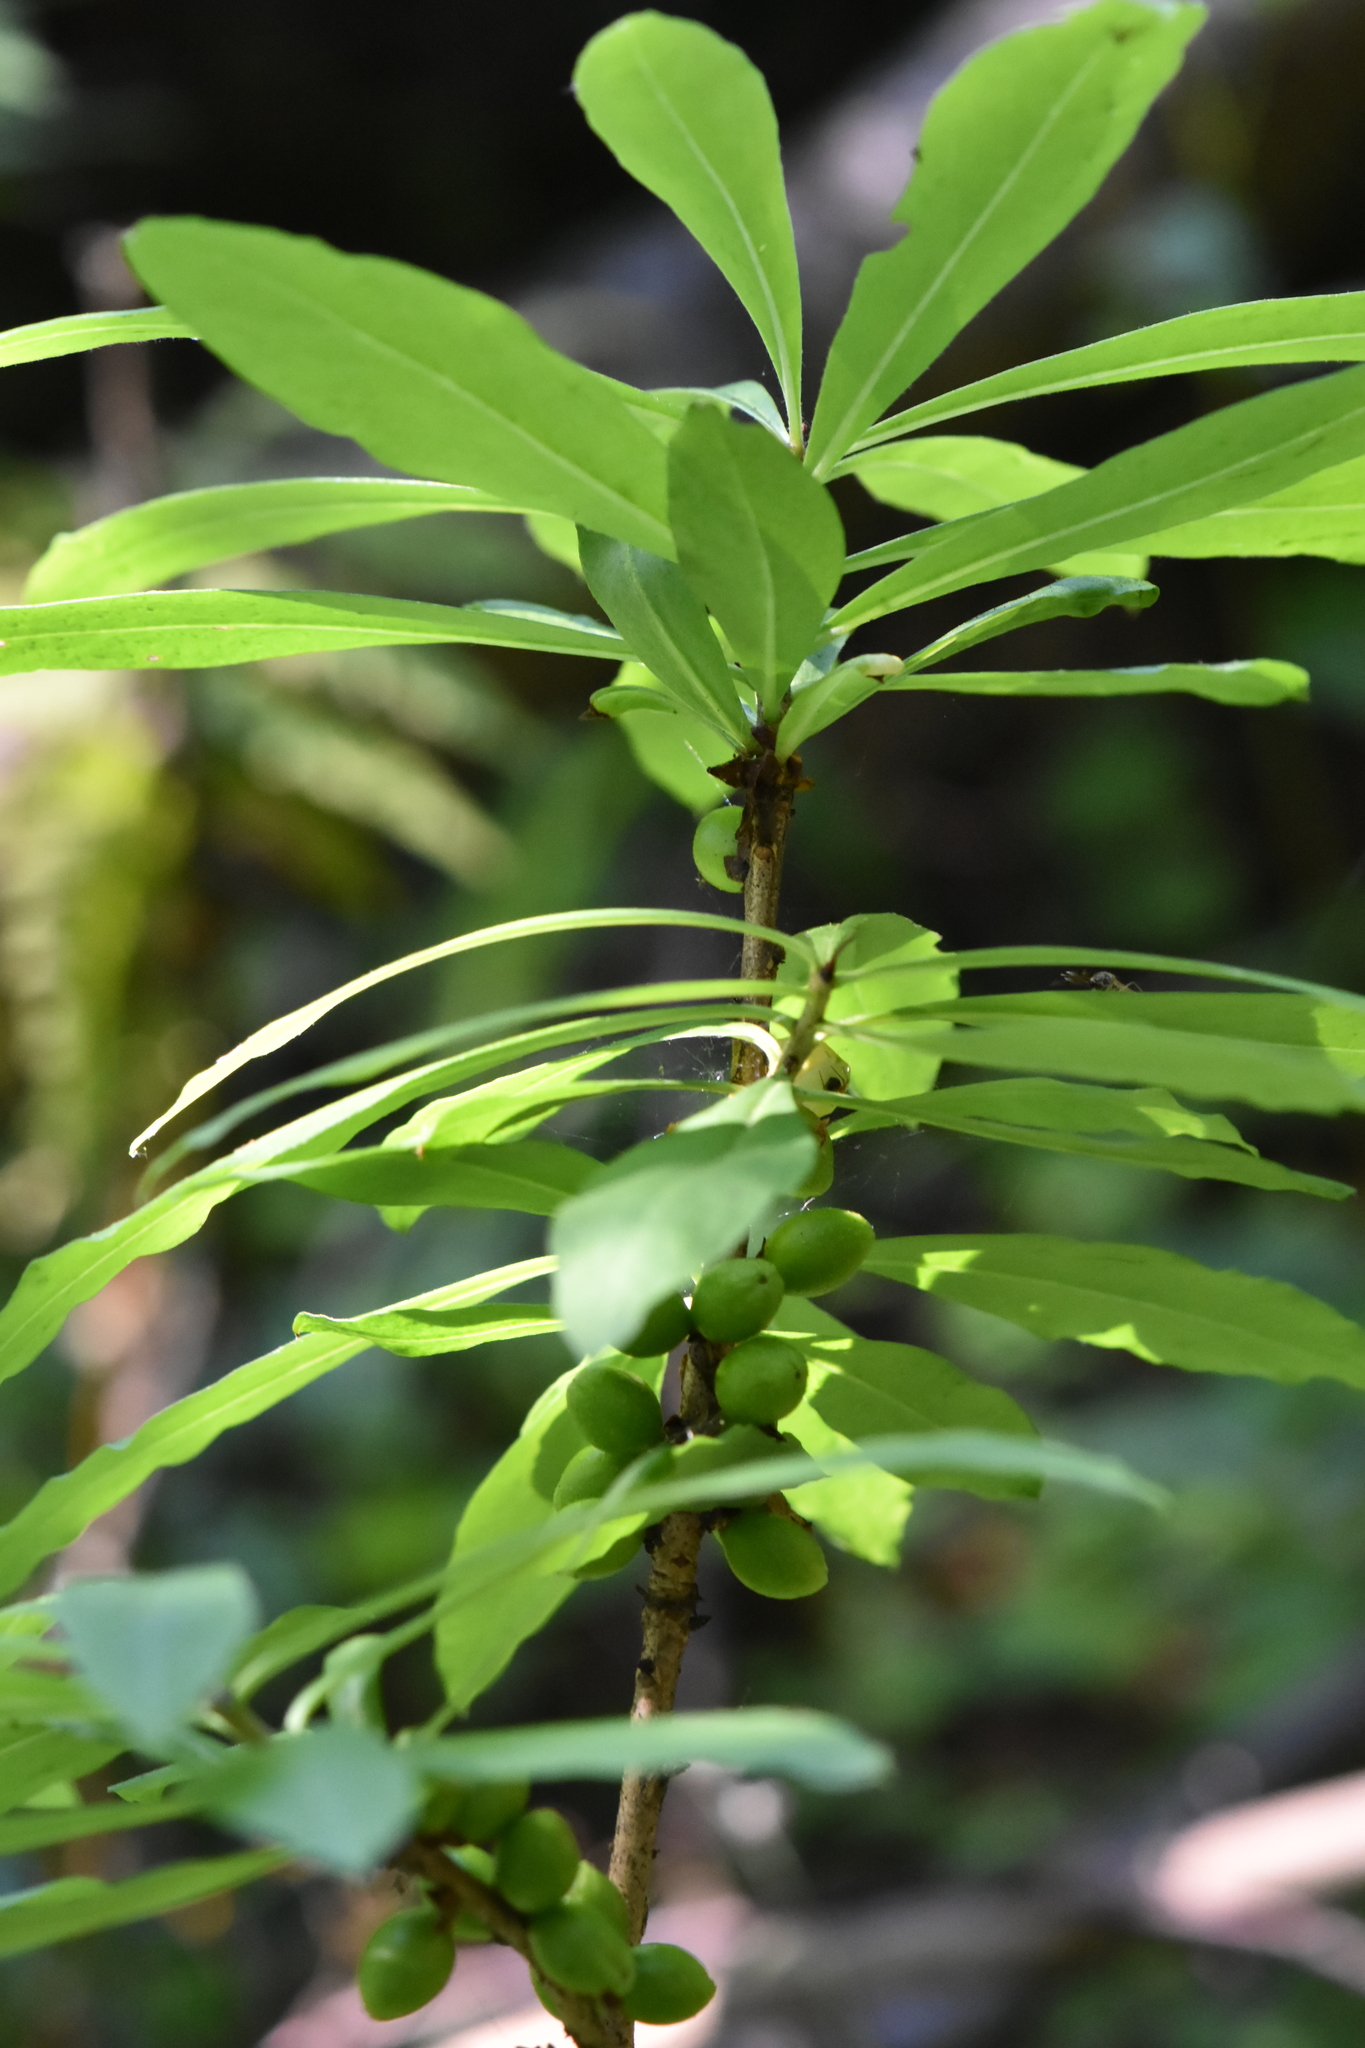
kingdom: Plantae
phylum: Tracheophyta
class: Magnoliopsida
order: Malvales
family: Thymelaeaceae
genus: Daphne
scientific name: Daphne mezereum
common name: Mezereon
